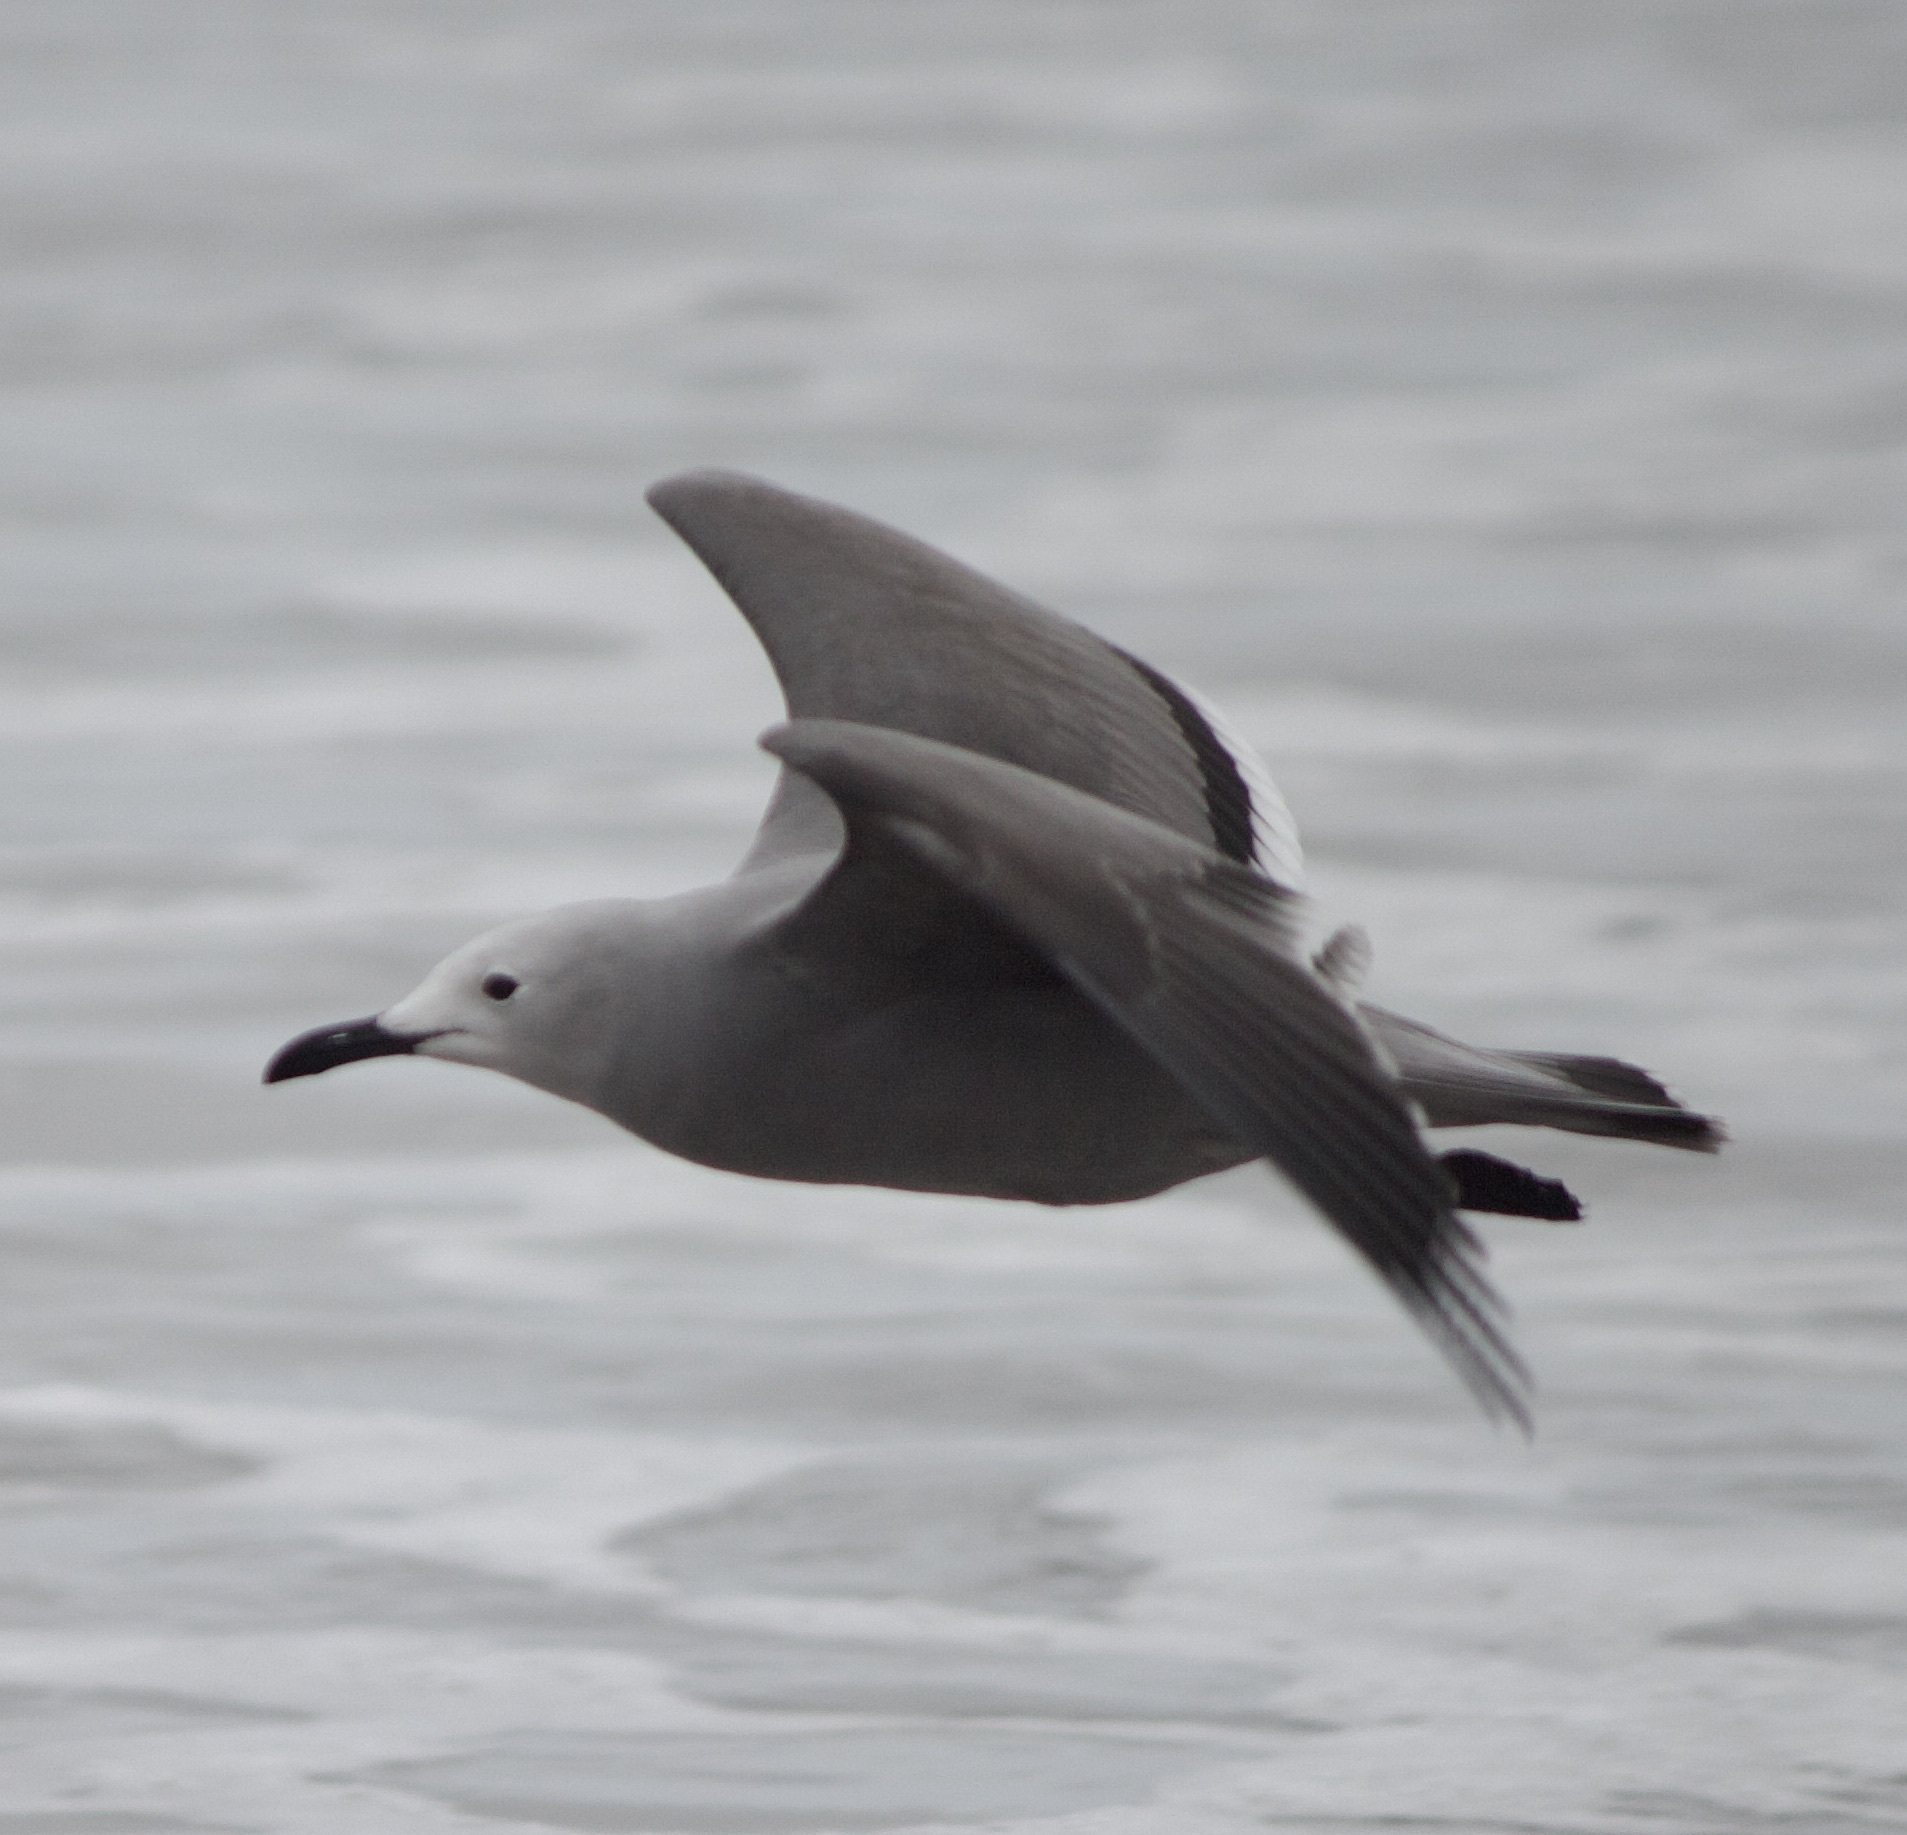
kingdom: Animalia
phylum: Chordata
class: Aves
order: Charadriiformes
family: Laridae
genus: Leucophaeus
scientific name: Leucophaeus modestus
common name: Gray gull
